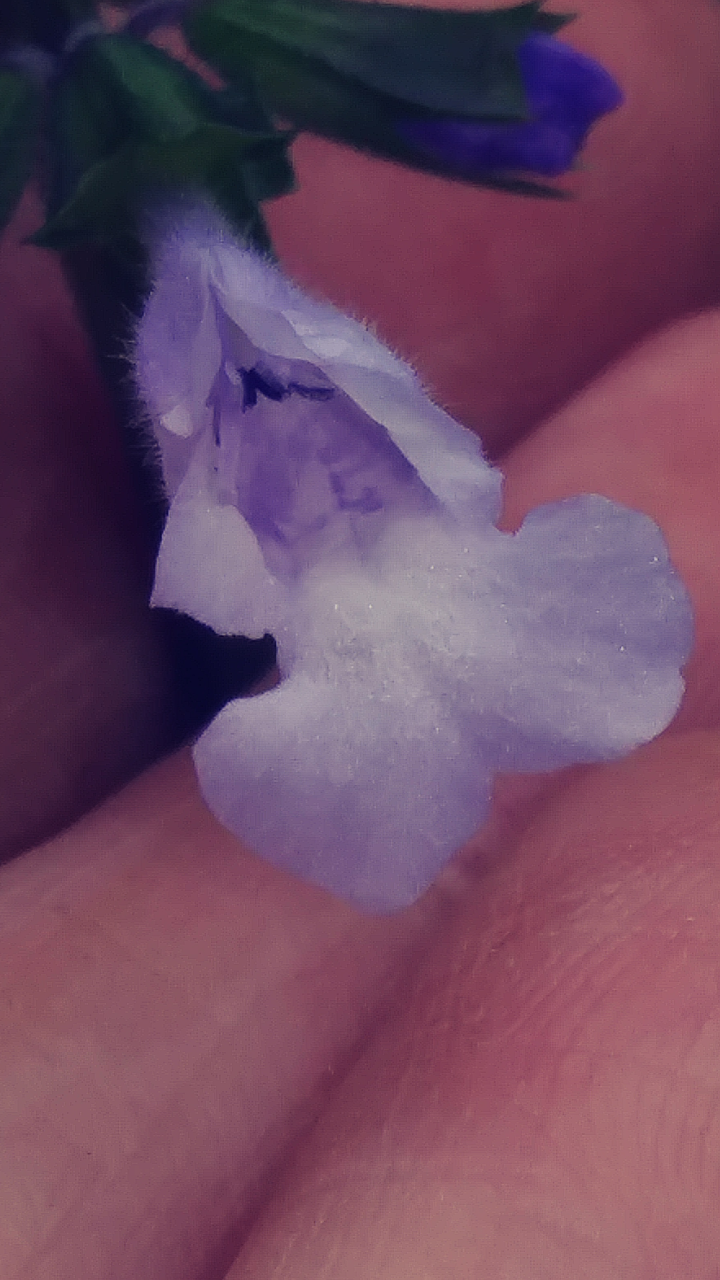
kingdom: Plantae
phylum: Tracheophyta
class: Magnoliopsida
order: Lamiales
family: Lamiaceae
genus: Salvia
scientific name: Salvia lyrata
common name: Cancerweed
